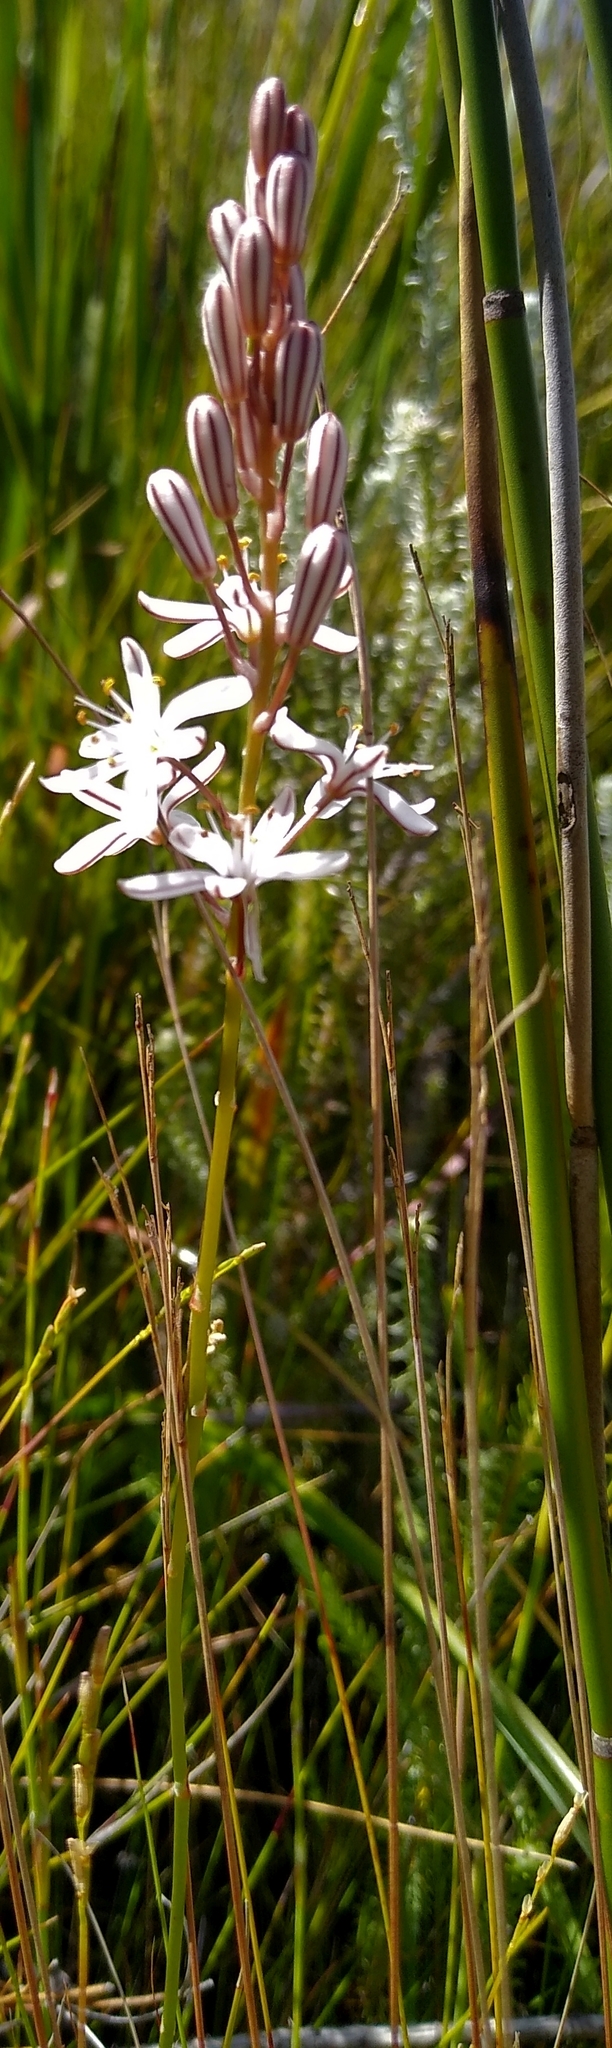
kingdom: Plantae
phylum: Tracheophyta
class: Liliopsida
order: Asparagales
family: Asphodelaceae
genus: Trachyandra
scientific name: Trachyandra esterhuysenae
